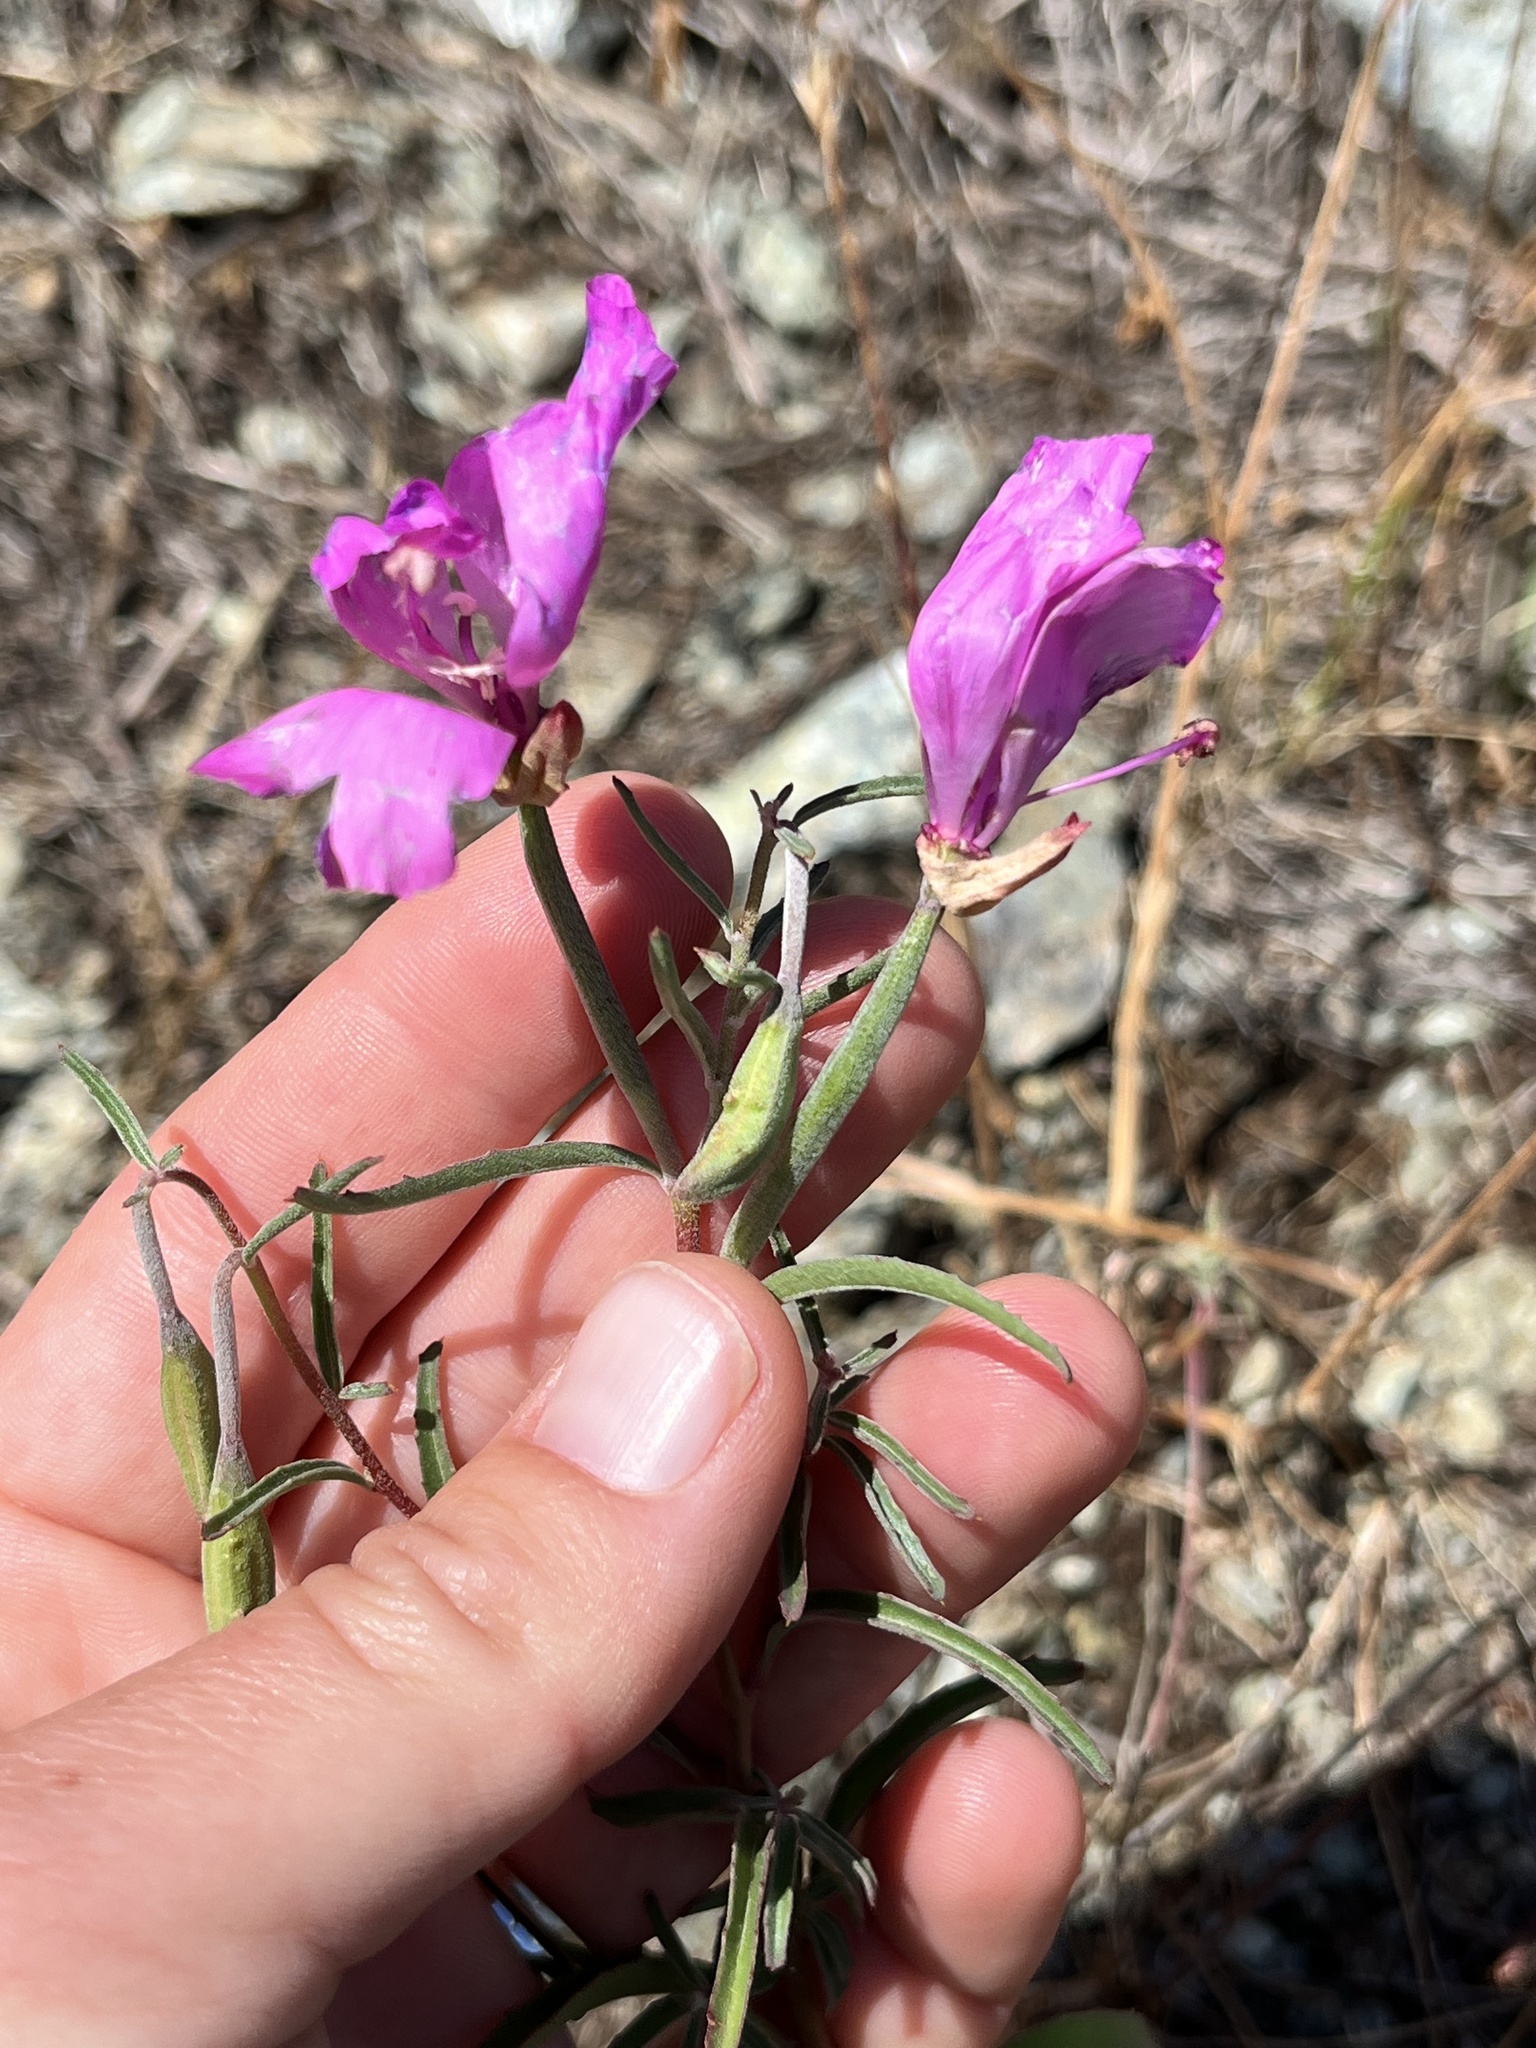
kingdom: Plantae
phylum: Tracheophyta
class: Magnoliopsida
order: Myrtales
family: Onagraceae
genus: Clarkia
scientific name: Clarkia bottae
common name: Punch-bowl godetia
